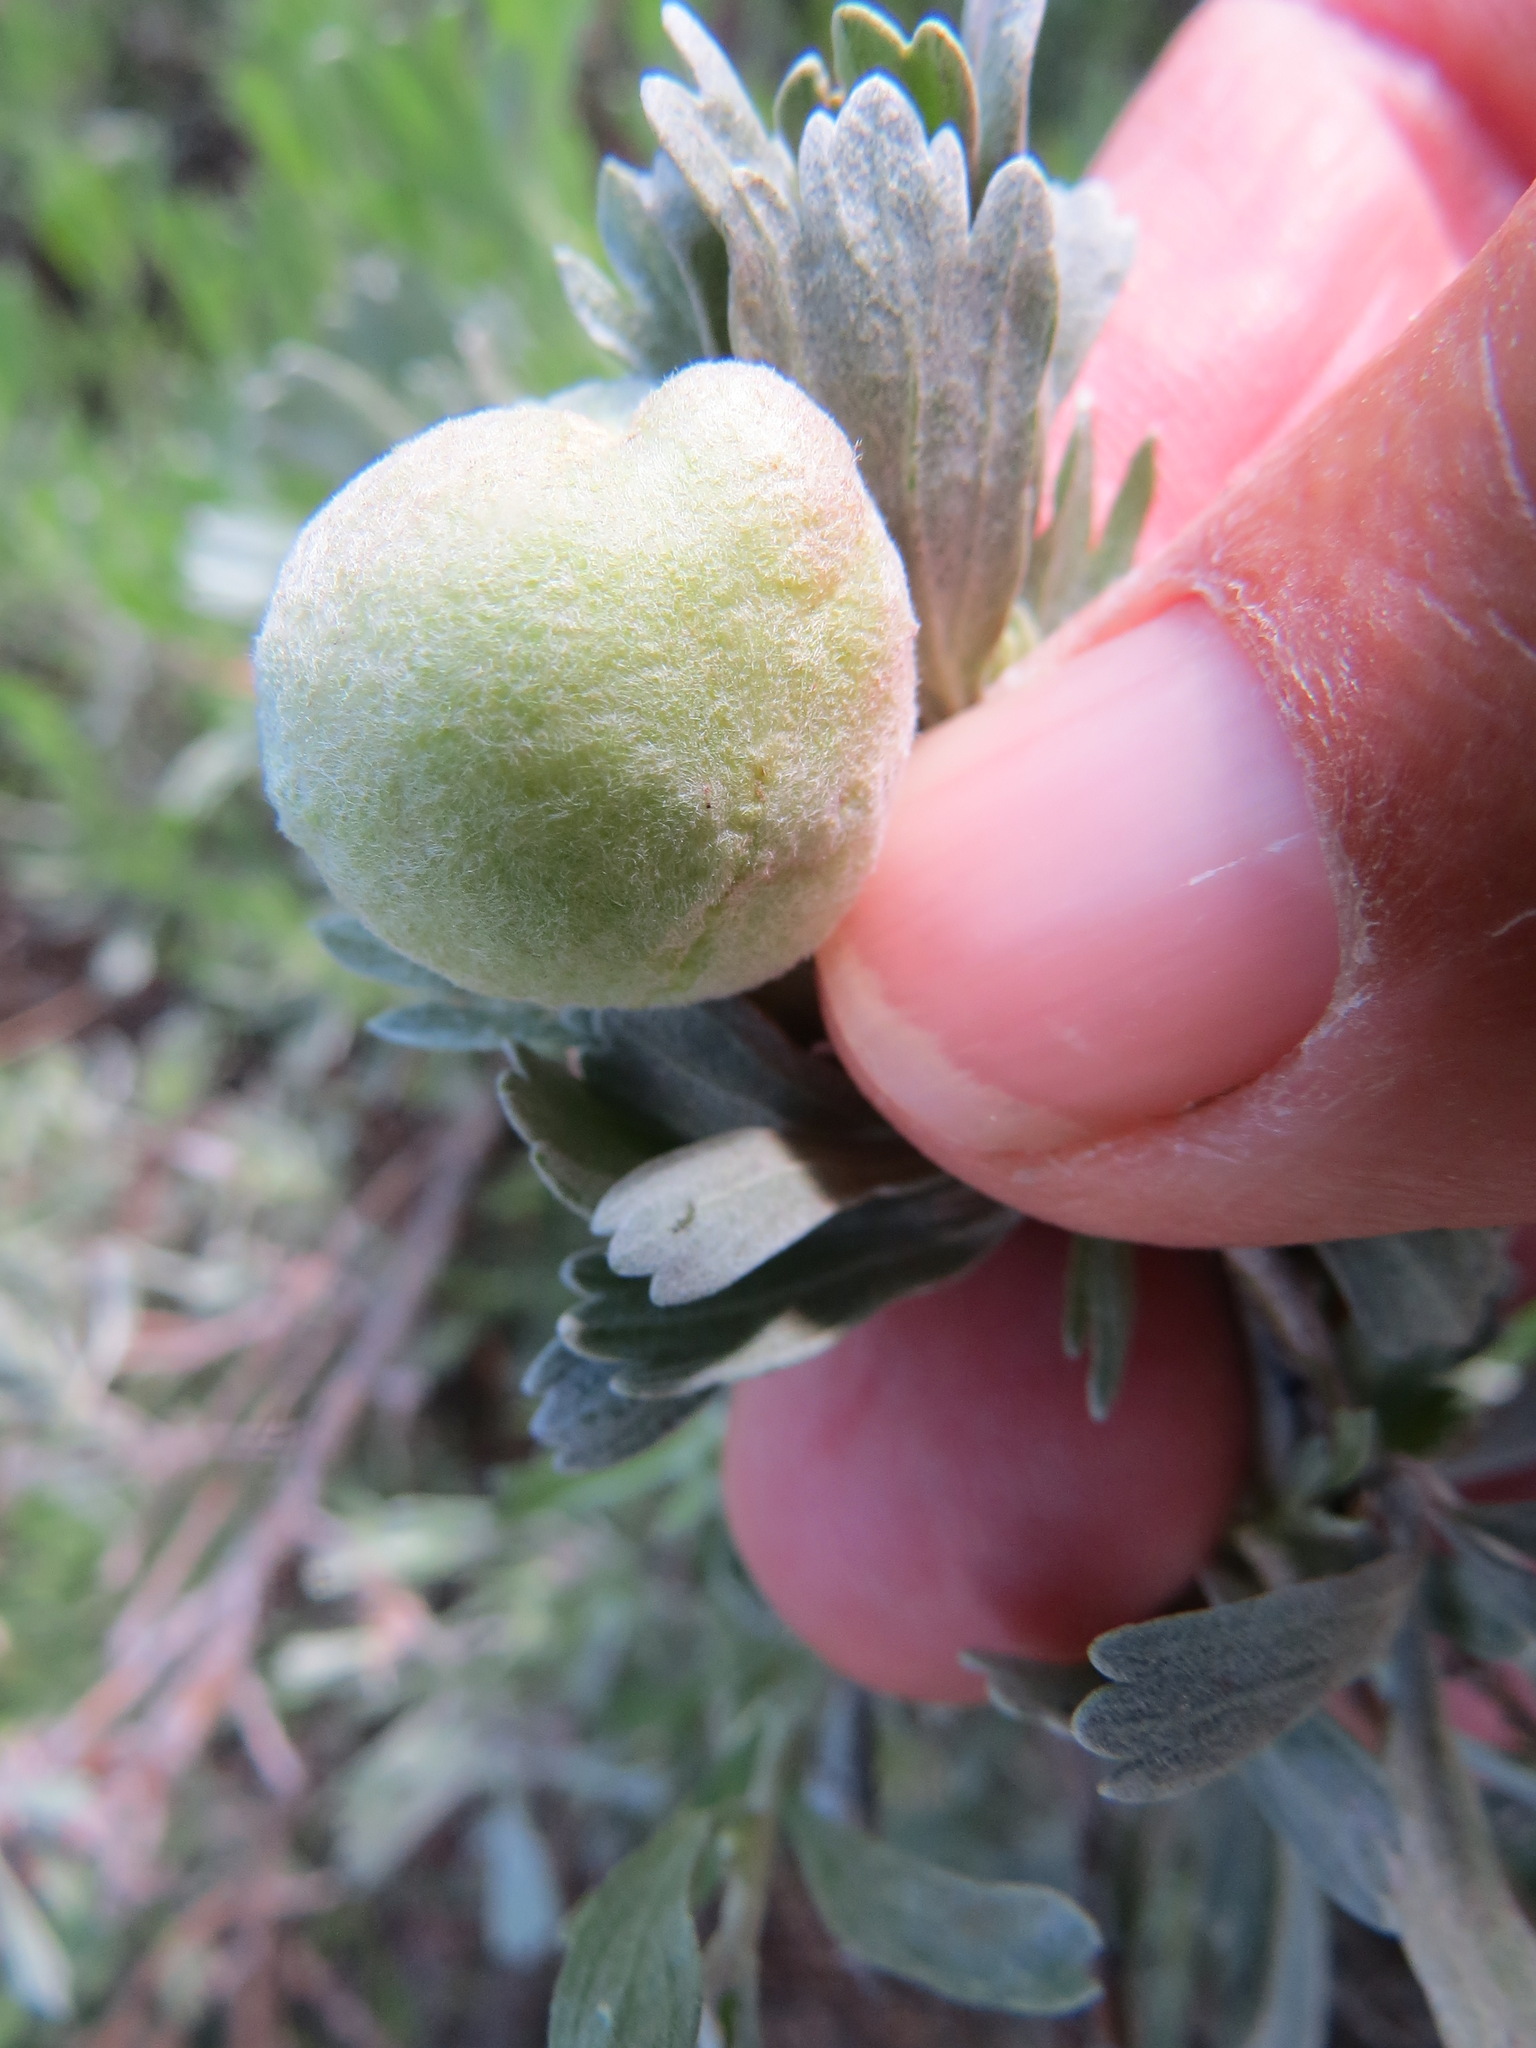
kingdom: Animalia
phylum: Arthropoda
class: Insecta
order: Diptera
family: Cecidomyiidae
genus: Rhopalomyia
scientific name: Rhopalomyia pomum
